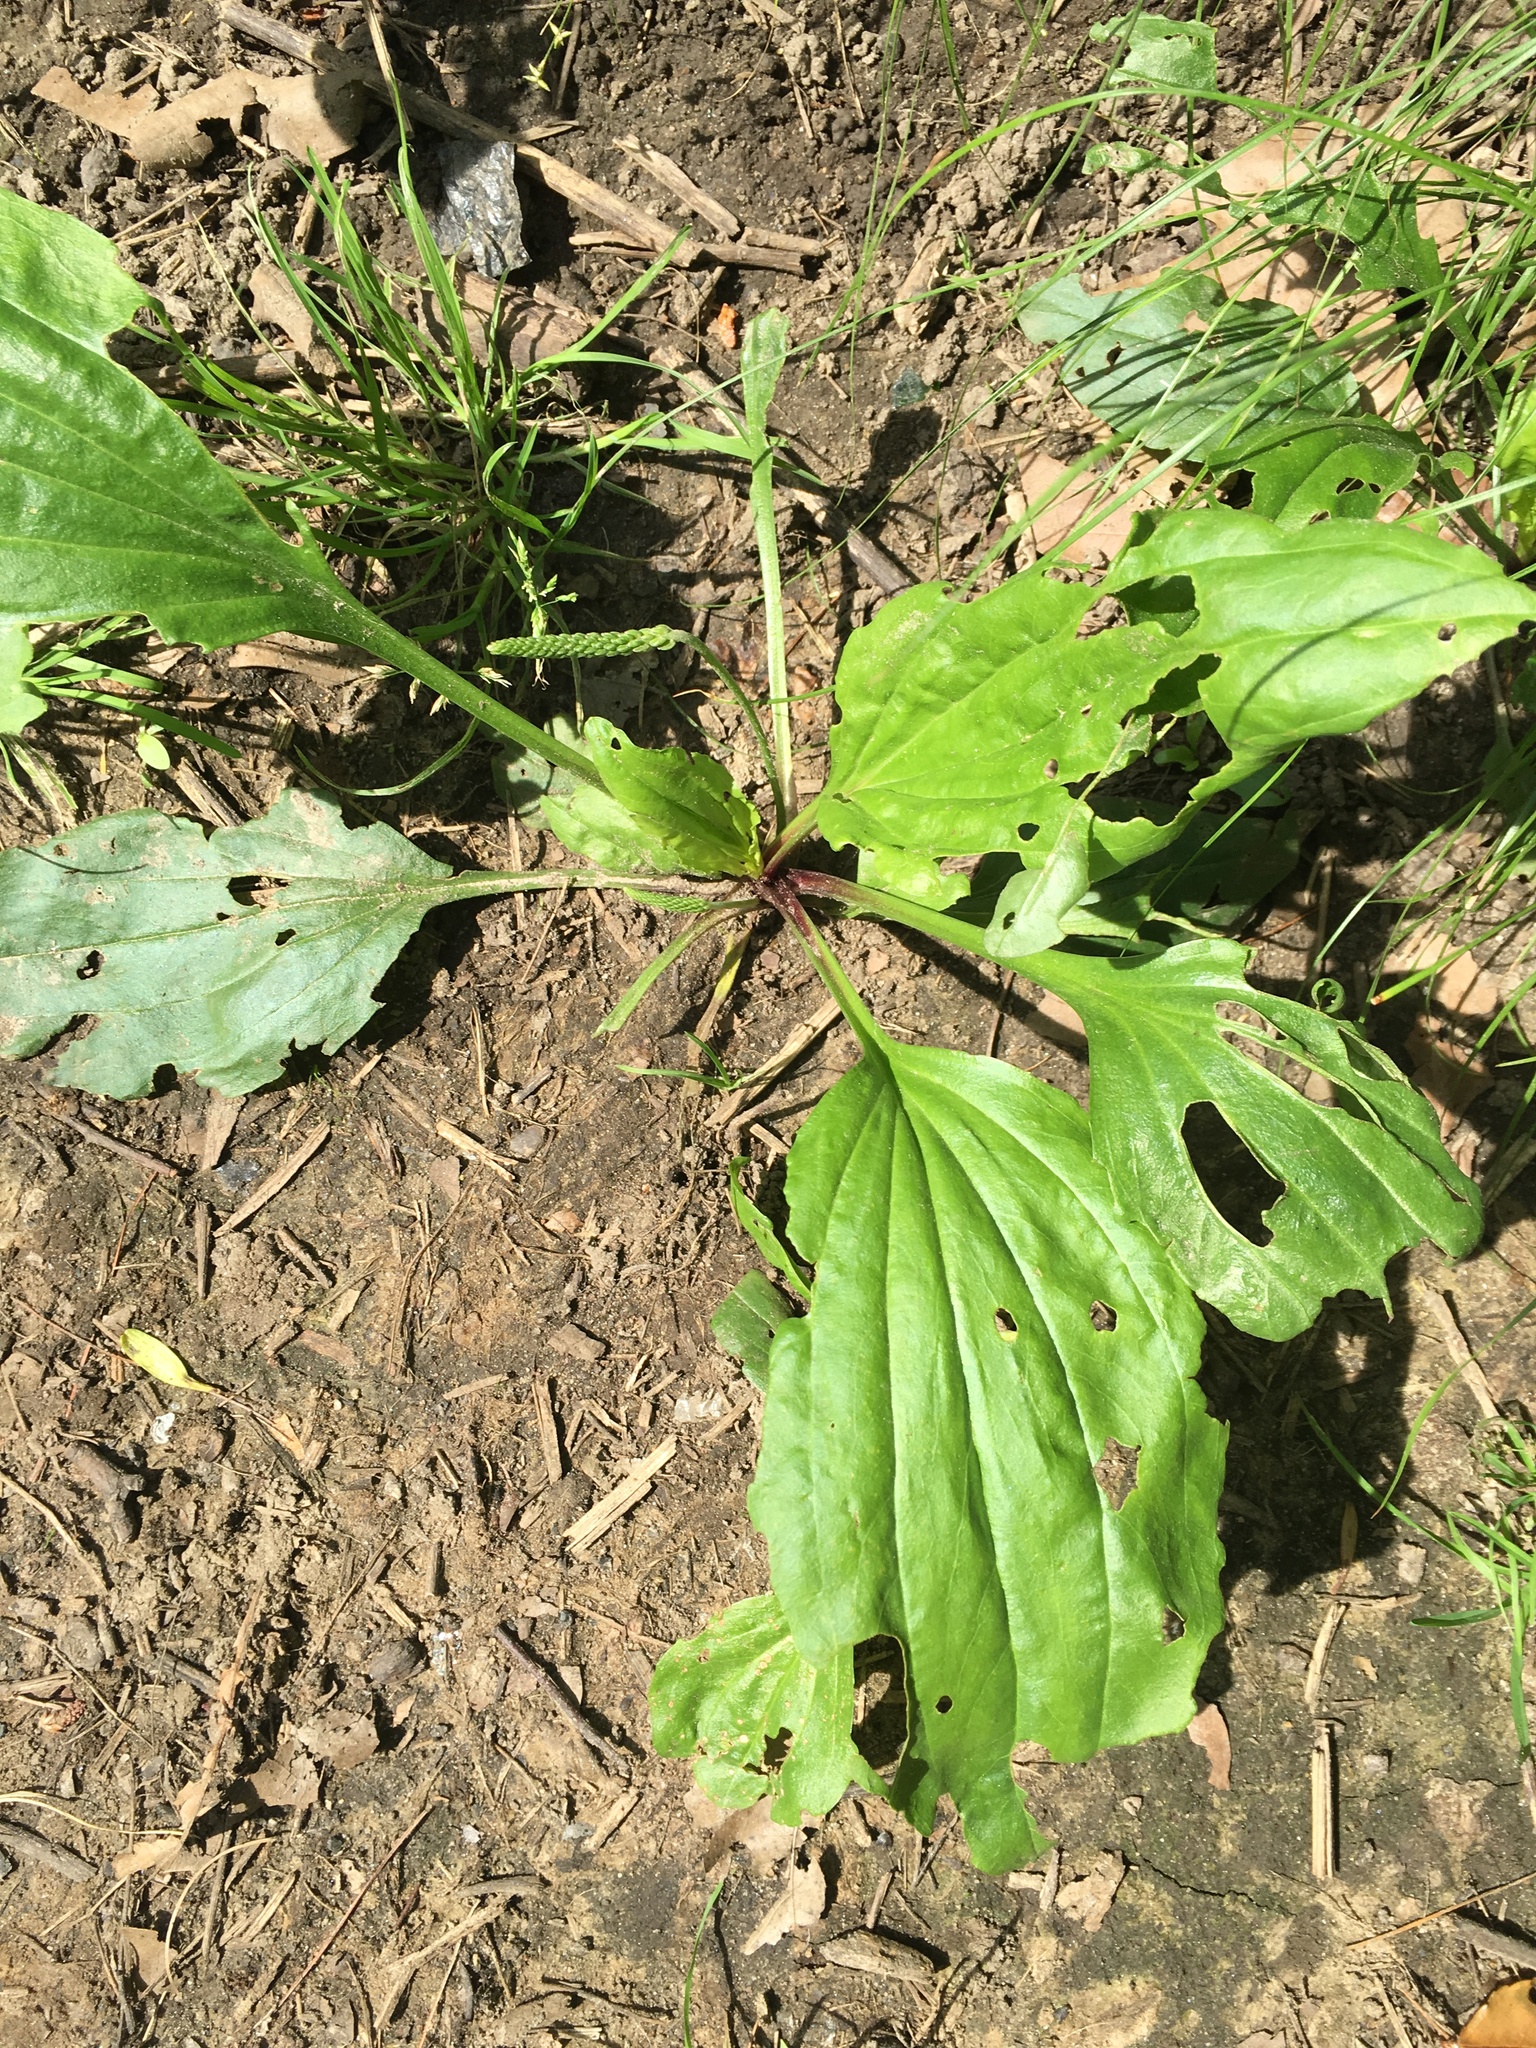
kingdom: Plantae
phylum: Tracheophyta
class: Magnoliopsida
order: Lamiales
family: Plantaginaceae
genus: Plantago
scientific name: Plantago rugelii
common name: American plantain
